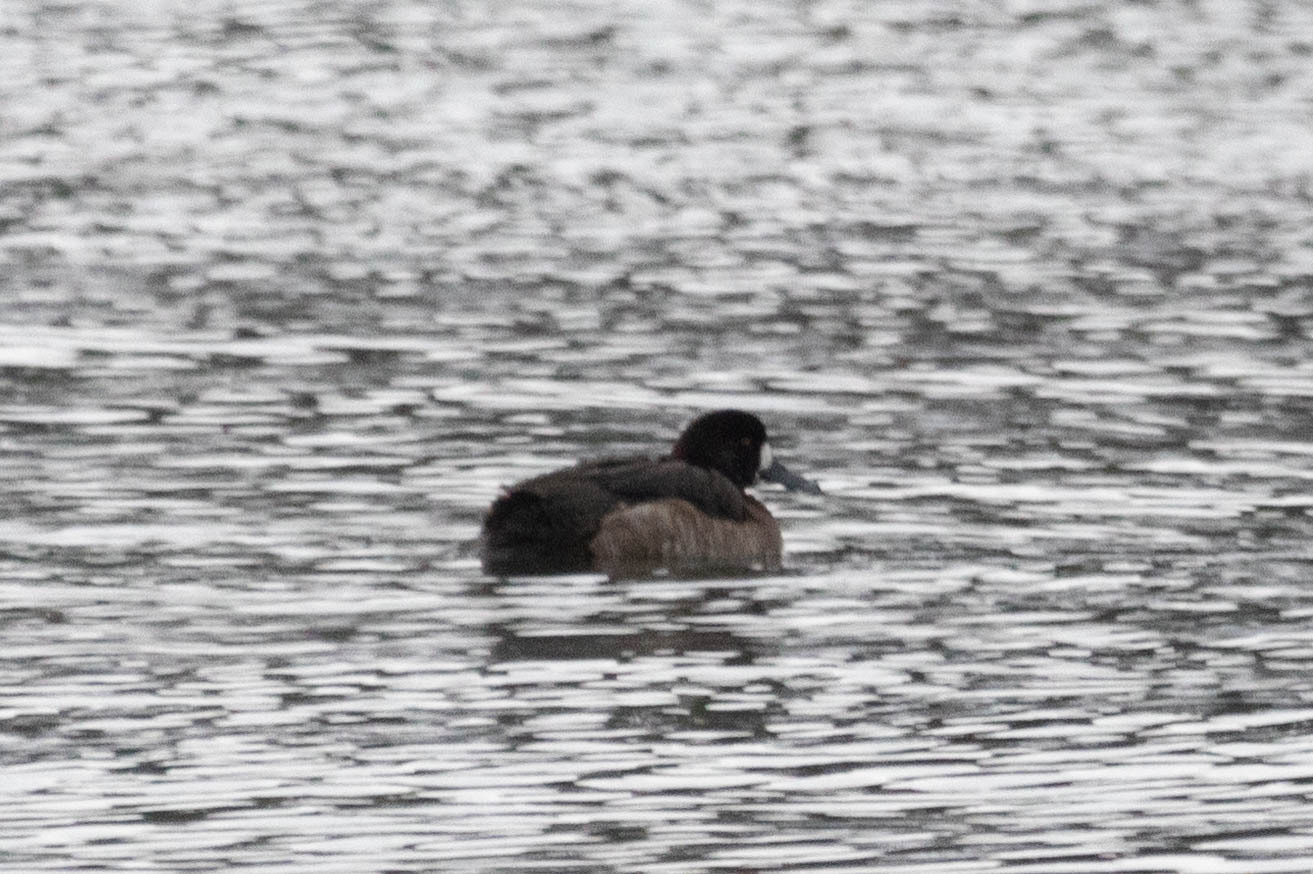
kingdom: Animalia
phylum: Chordata
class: Aves
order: Anseriformes
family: Anatidae
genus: Aythya
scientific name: Aythya marila
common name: Greater scaup
